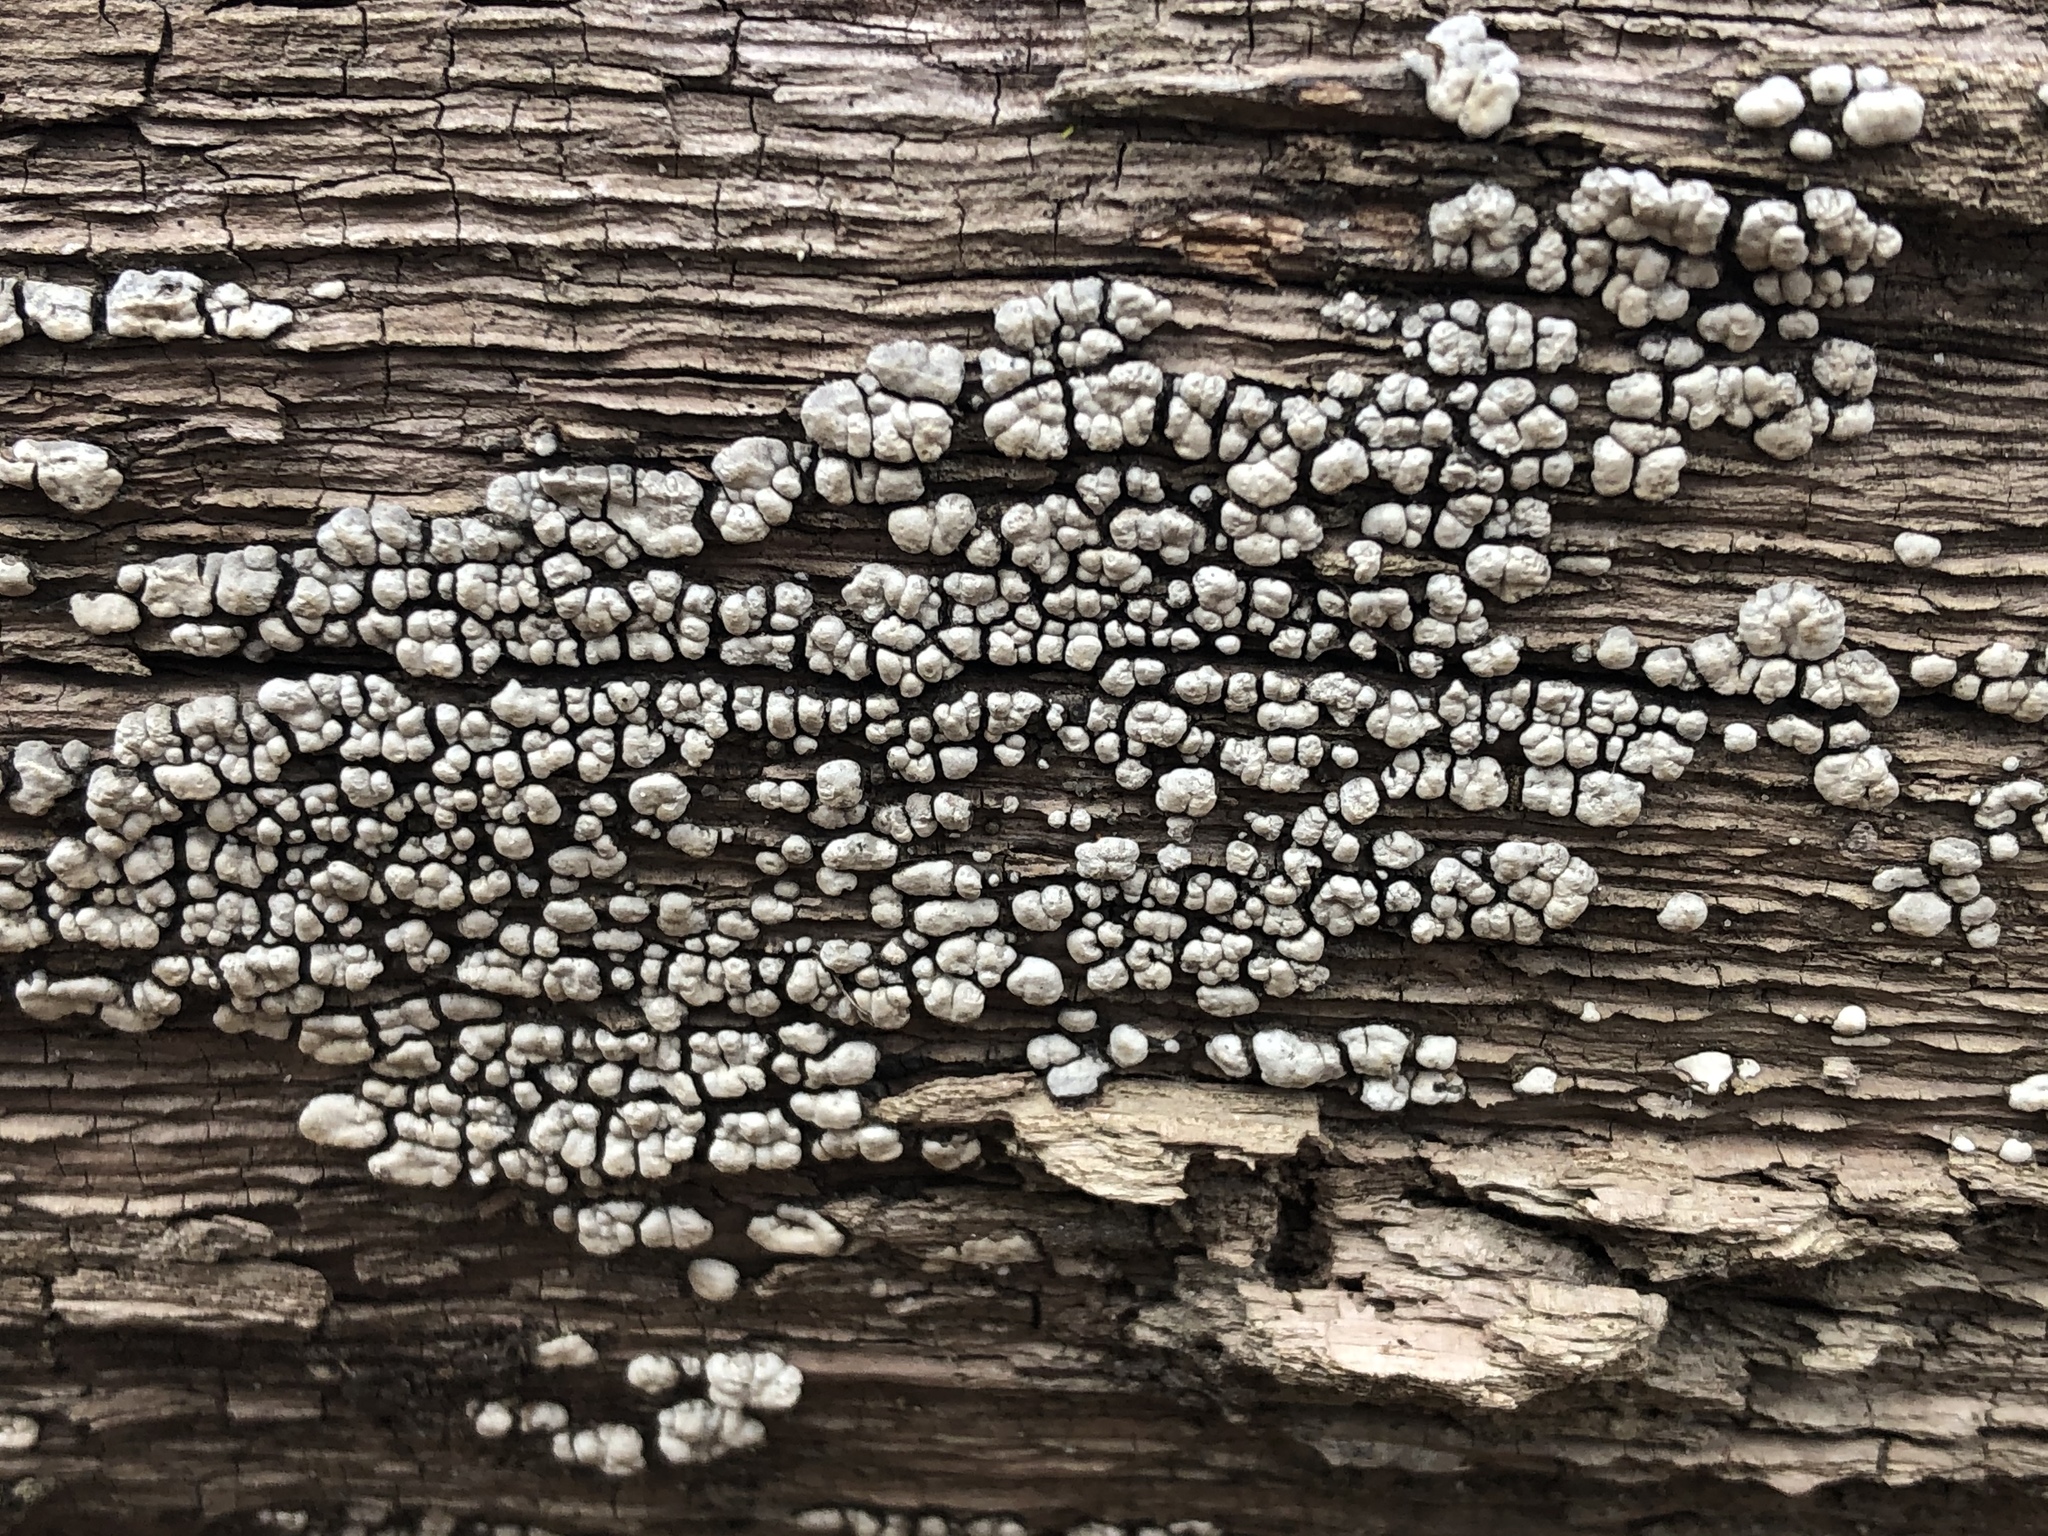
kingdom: Fungi
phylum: Basidiomycota
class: Agaricomycetes
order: Russulales
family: Stereaceae
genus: Xylobolus
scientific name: Xylobolus frustulatus
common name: Ceramic parchment
